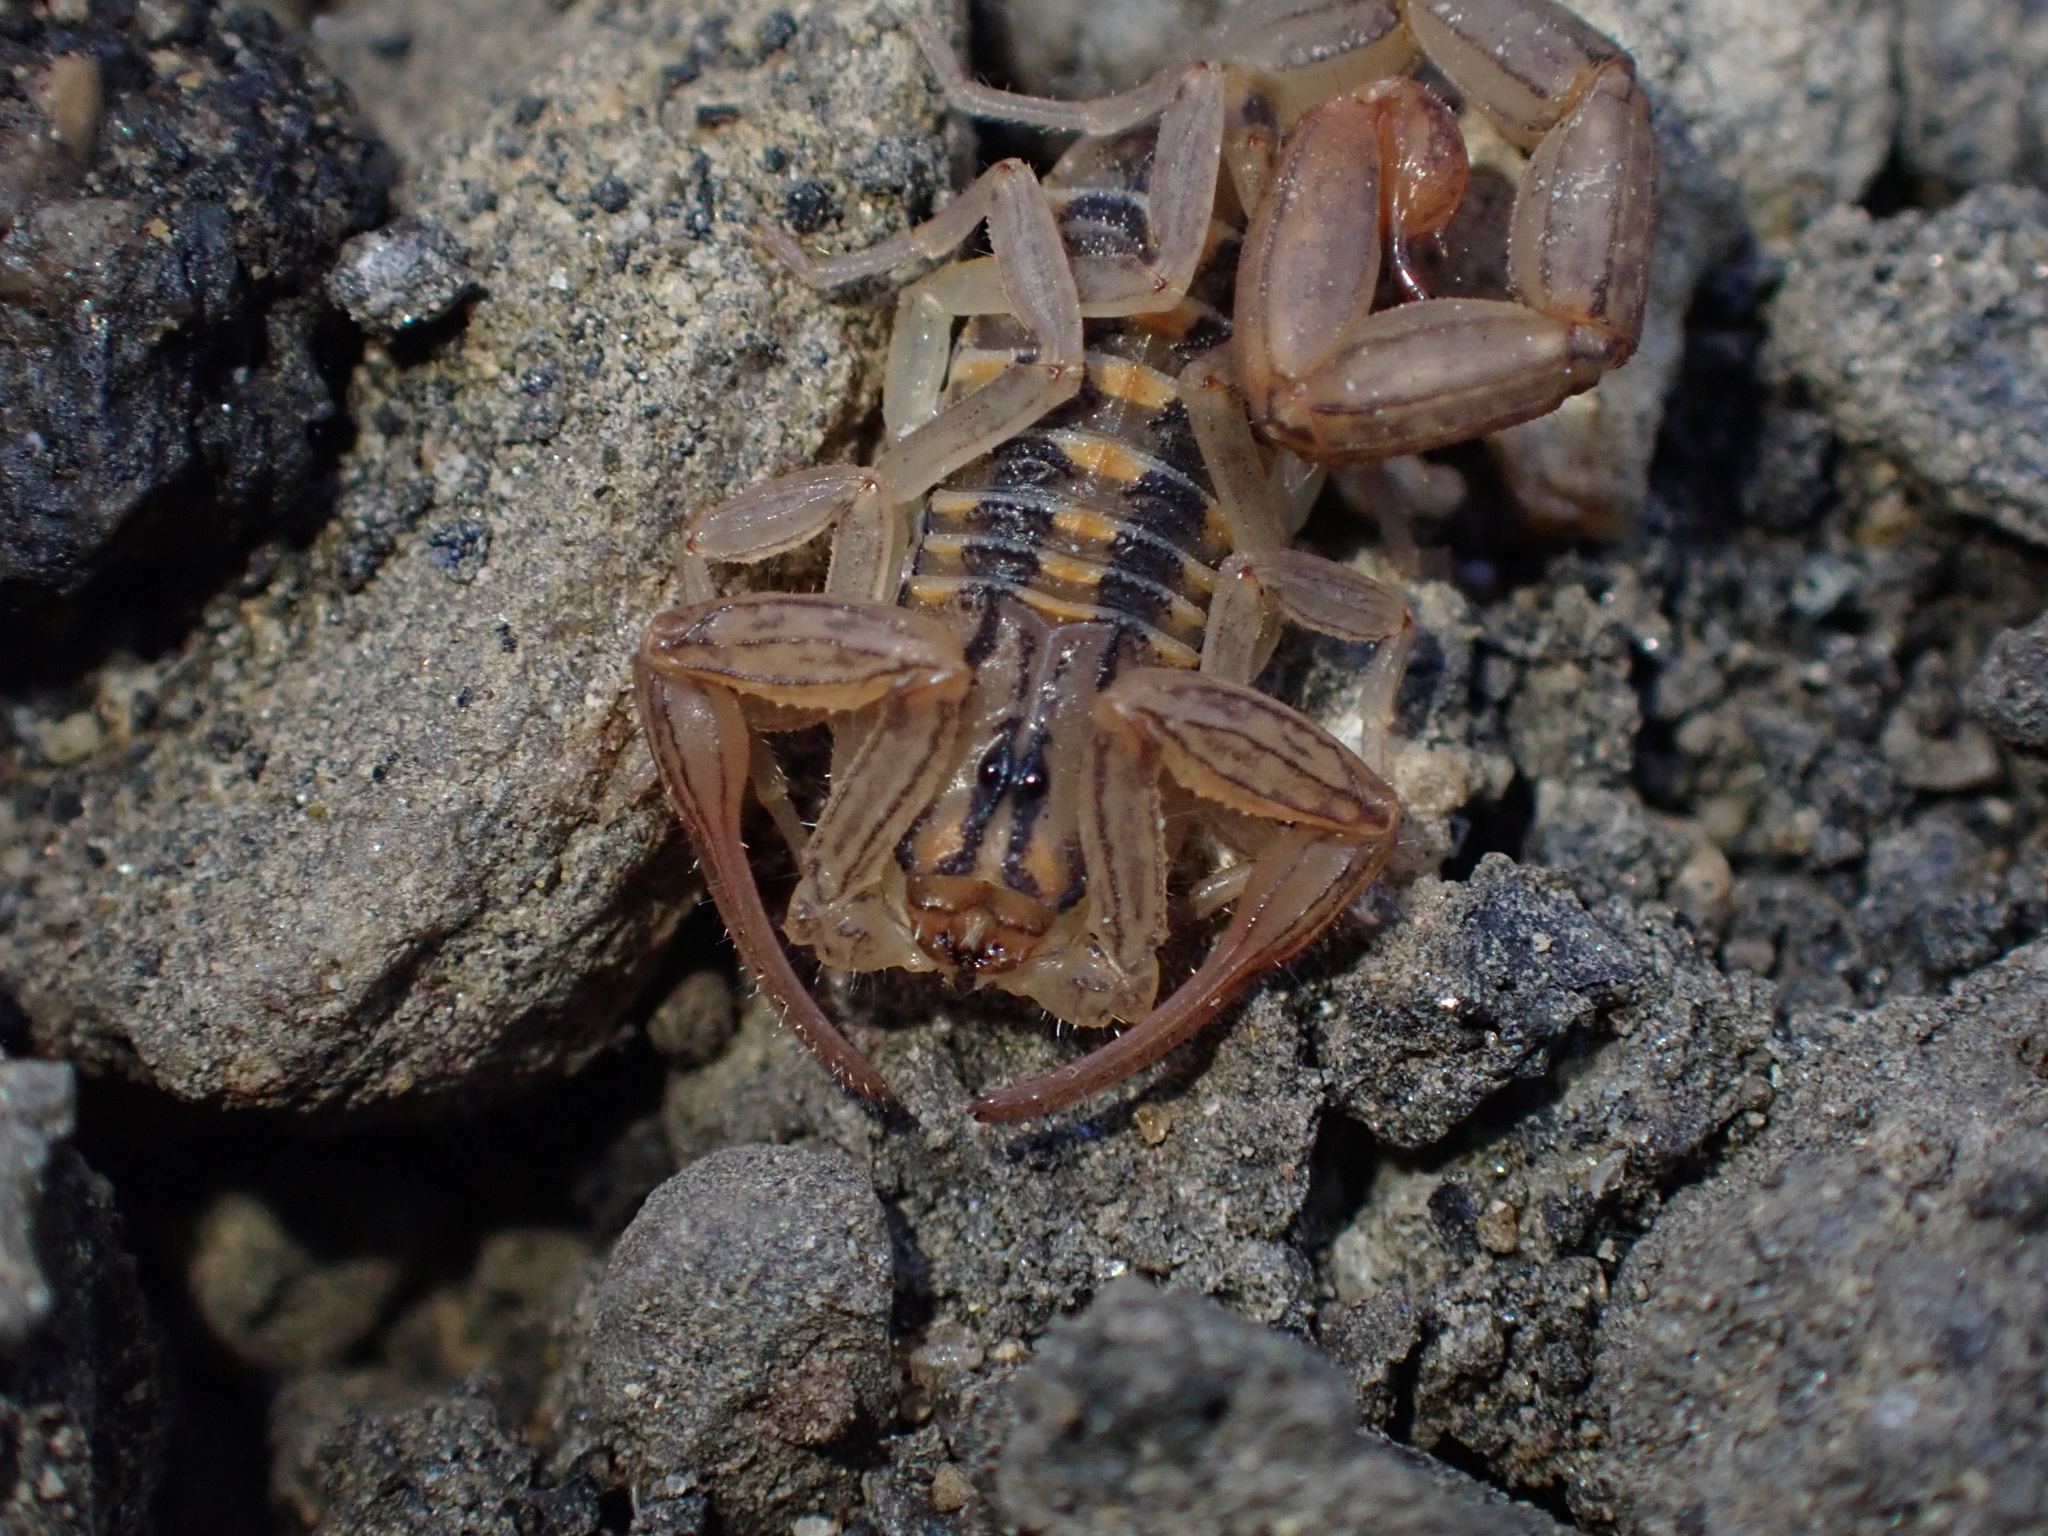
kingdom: Animalia
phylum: Arthropoda
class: Arachnida
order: Scorpiones
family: Buthidae
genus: Centruroides
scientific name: Centruroides elegans
